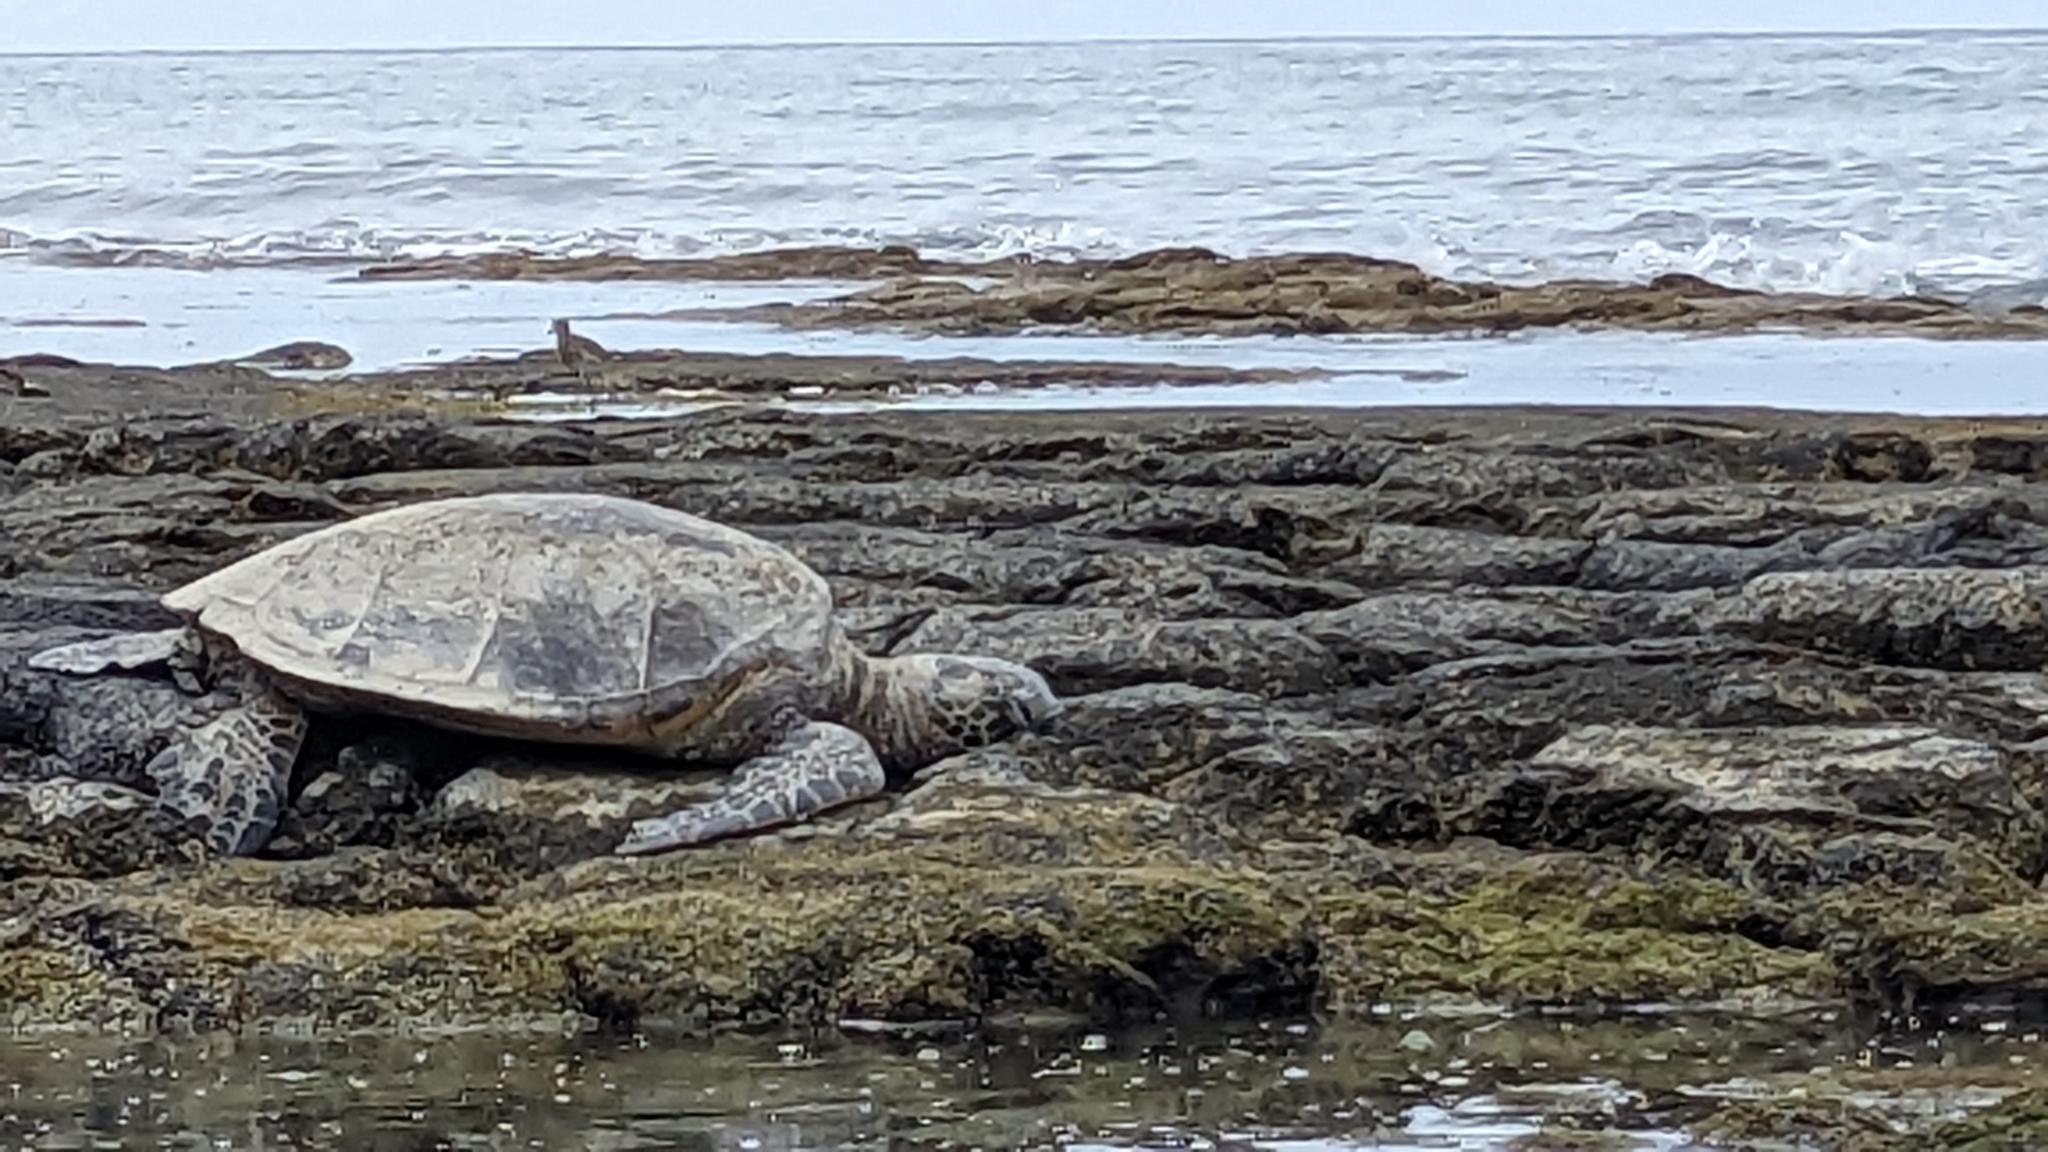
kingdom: Animalia
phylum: Chordata
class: Testudines
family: Cheloniidae
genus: Chelonia
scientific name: Chelonia mydas
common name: Green turtle
